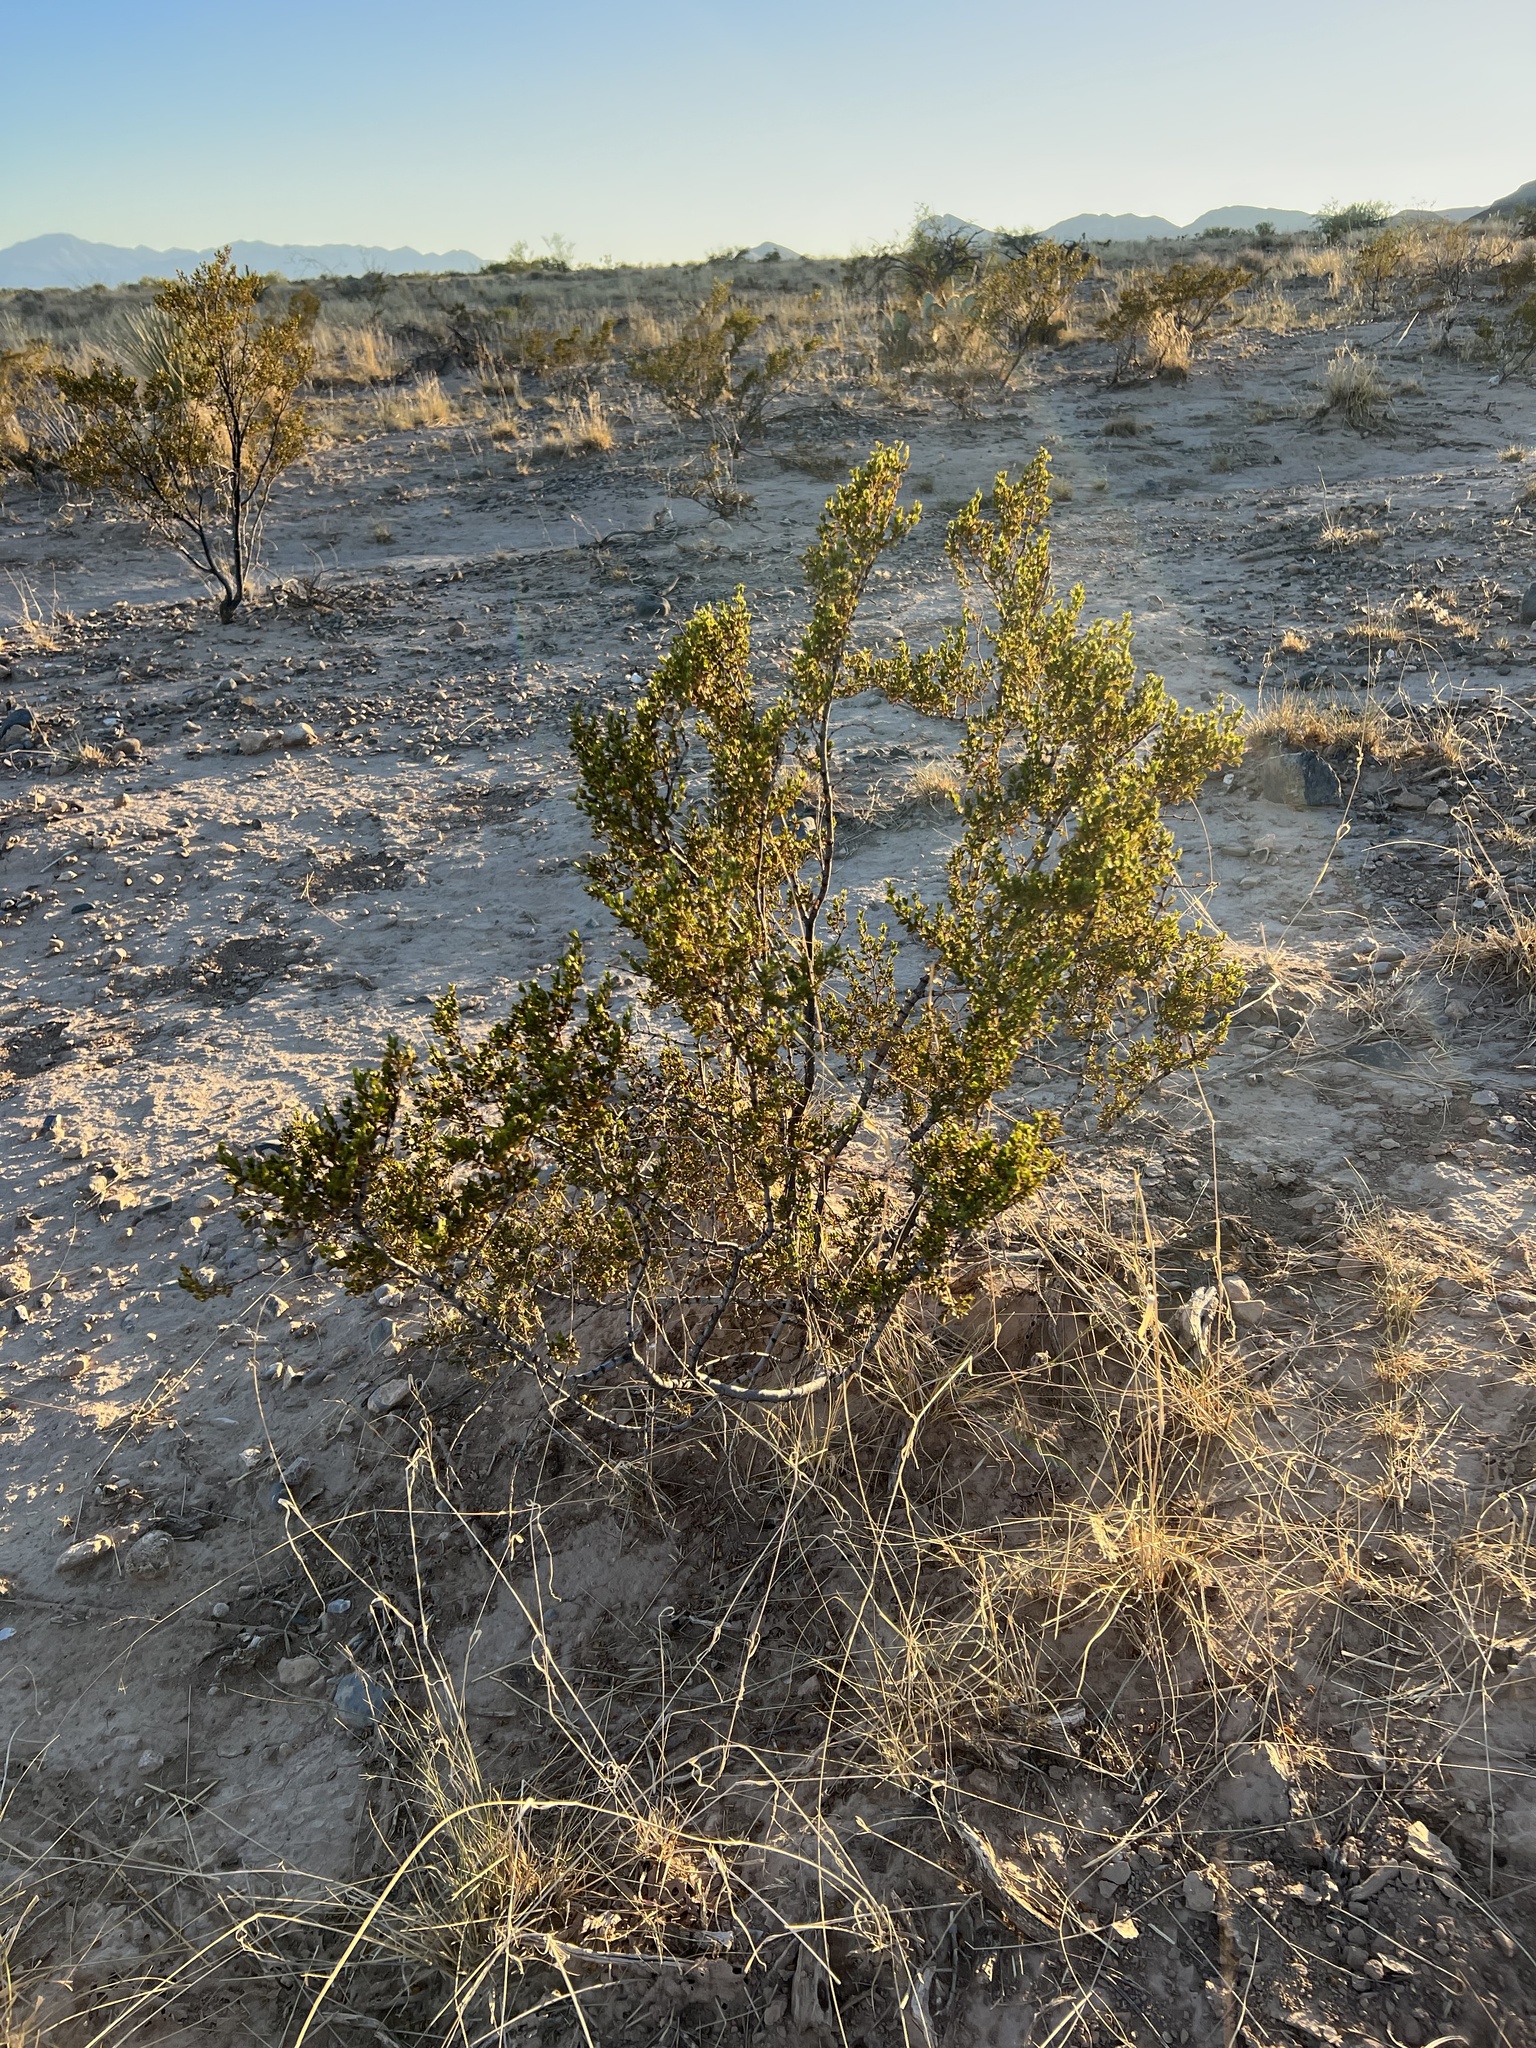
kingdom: Plantae
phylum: Tracheophyta
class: Magnoliopsida
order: Zygophyllales
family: Zygophyllaceae
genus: Larrea
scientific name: Larrea tridentata
